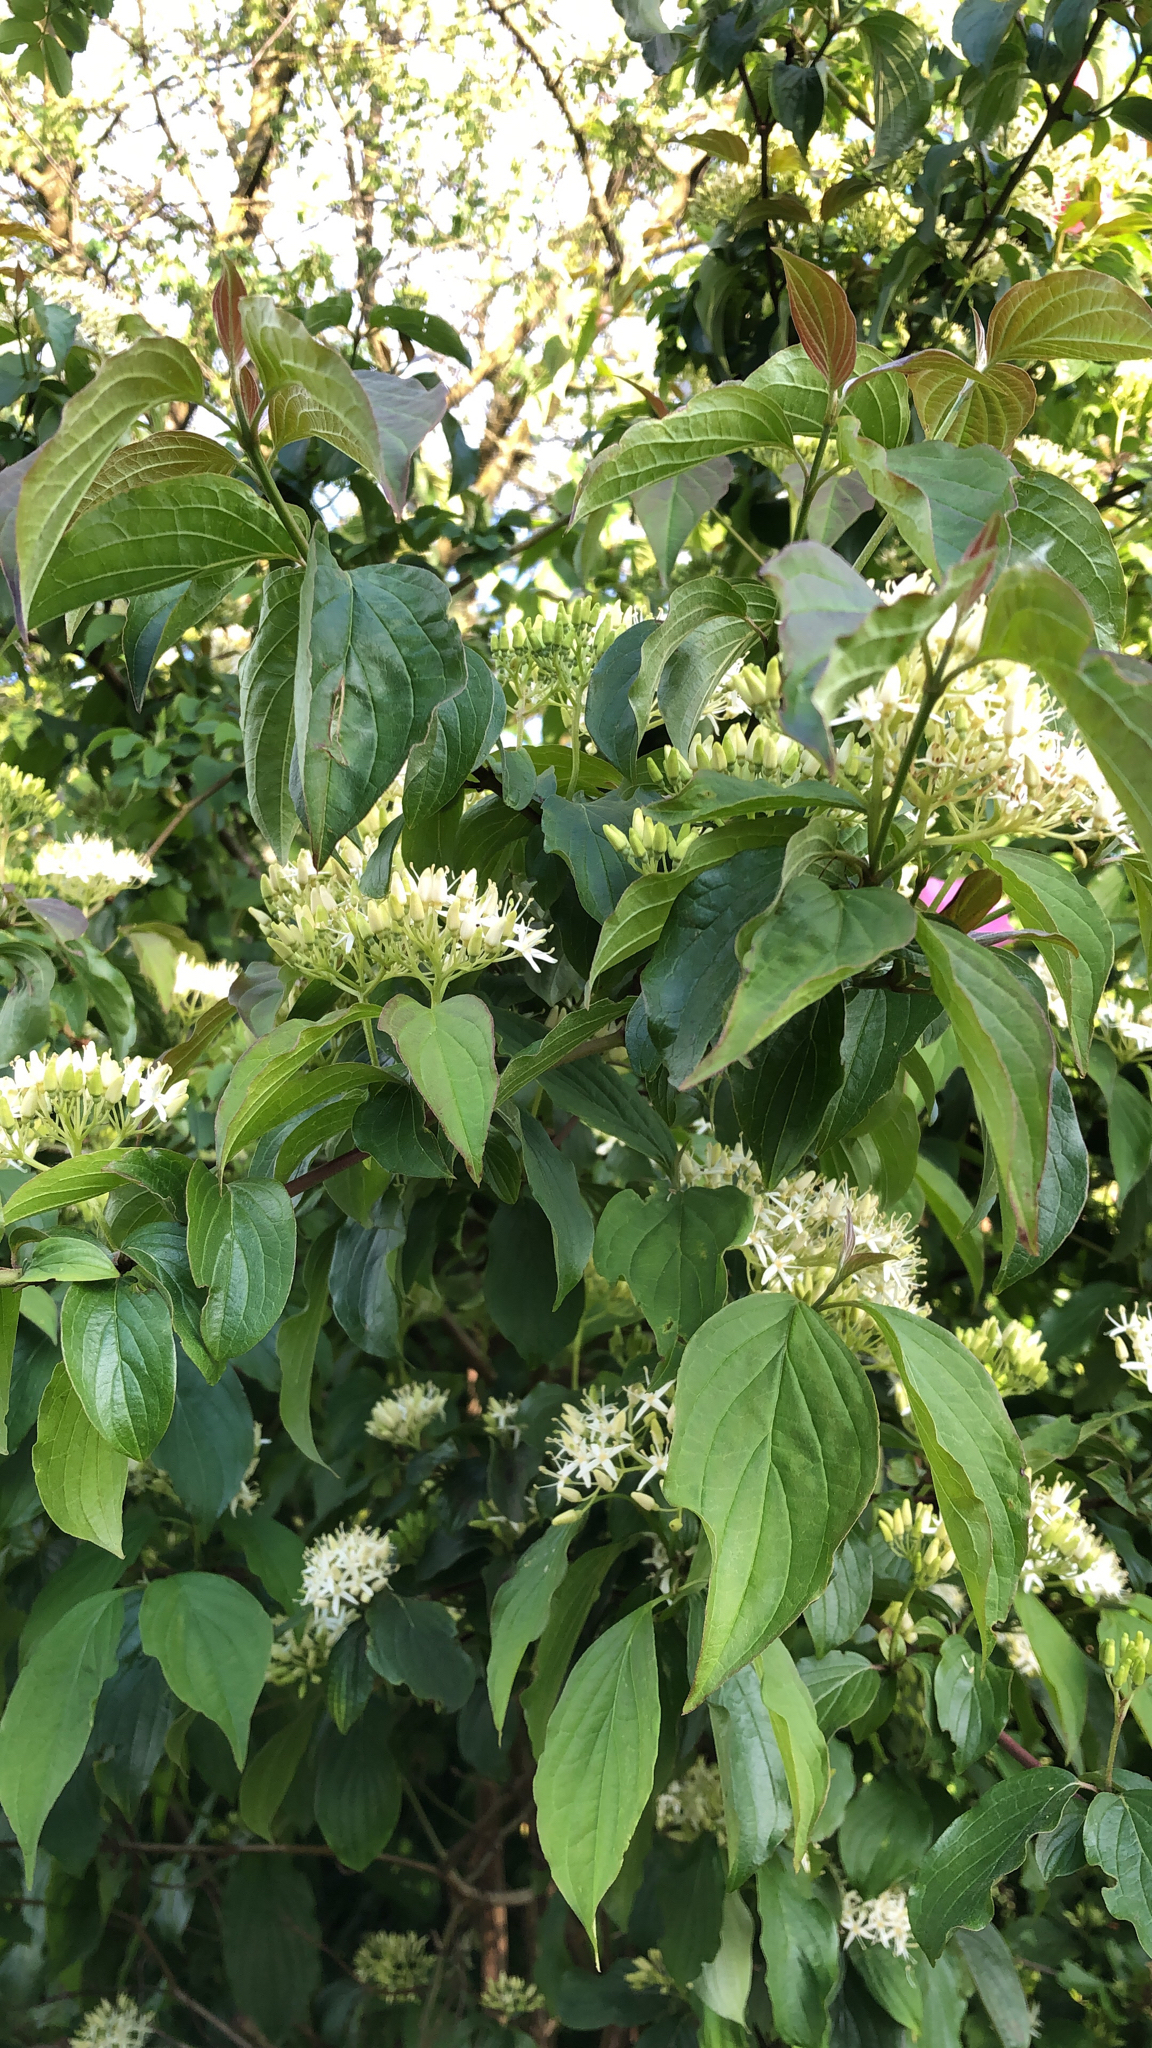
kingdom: Plantae
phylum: Tracheophyta
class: Magnoliopsida
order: Cornales
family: Cornaceae
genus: Cornus
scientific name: Cornus sanguinea
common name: Dogwood
